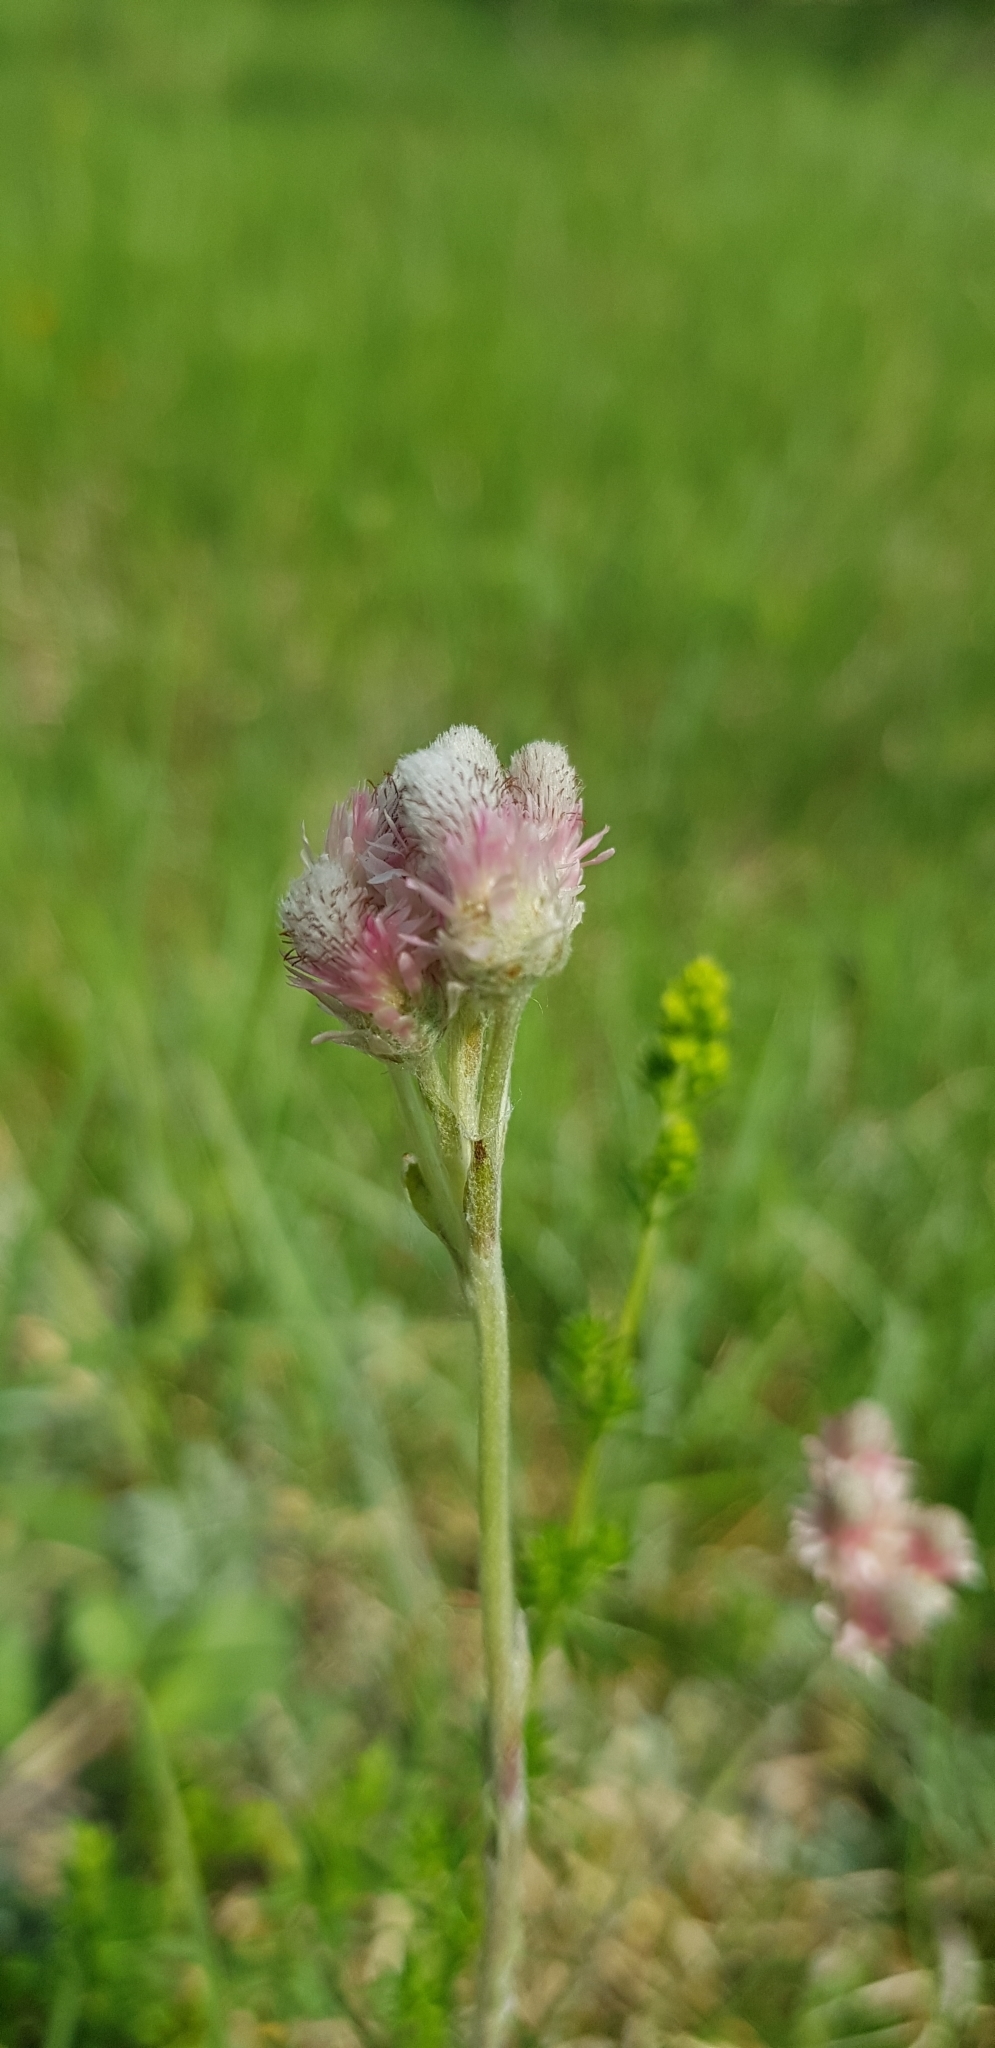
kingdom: Plantae
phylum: Tracheophyta
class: Magnoliopsida
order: Asterales
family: Asteraceae
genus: Antennaria
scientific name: Antennaria dioica
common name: Mountain everlasting
